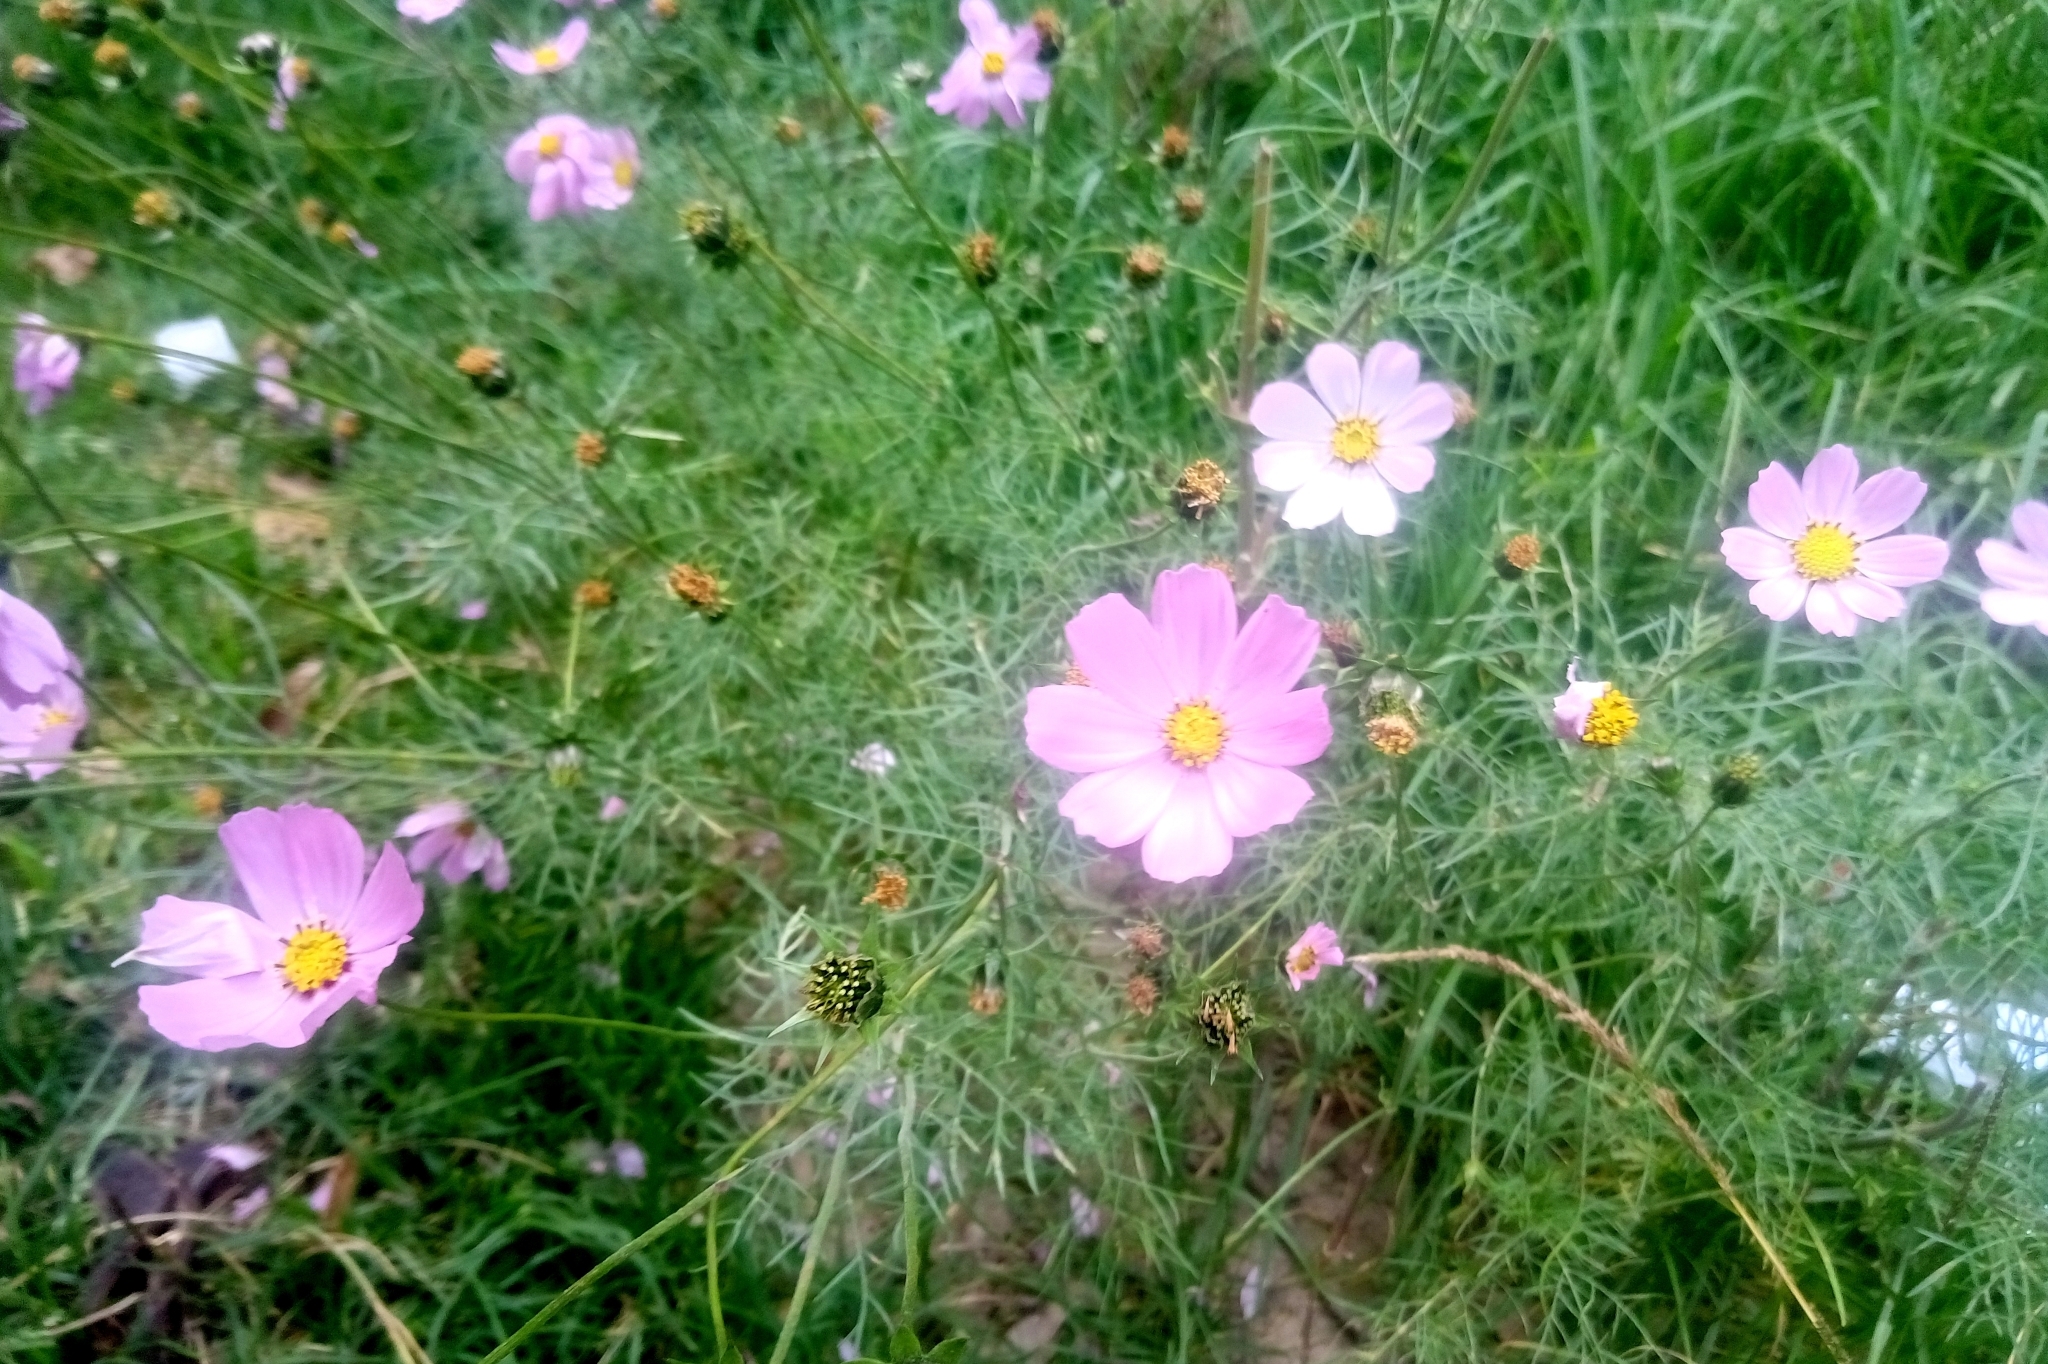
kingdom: Plantae
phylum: Tracheophyta
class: Magnoliopsida
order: Asterales
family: Asteraceae
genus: Cosmos
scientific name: Cosmos bipinnatus
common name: Garden cosmos
